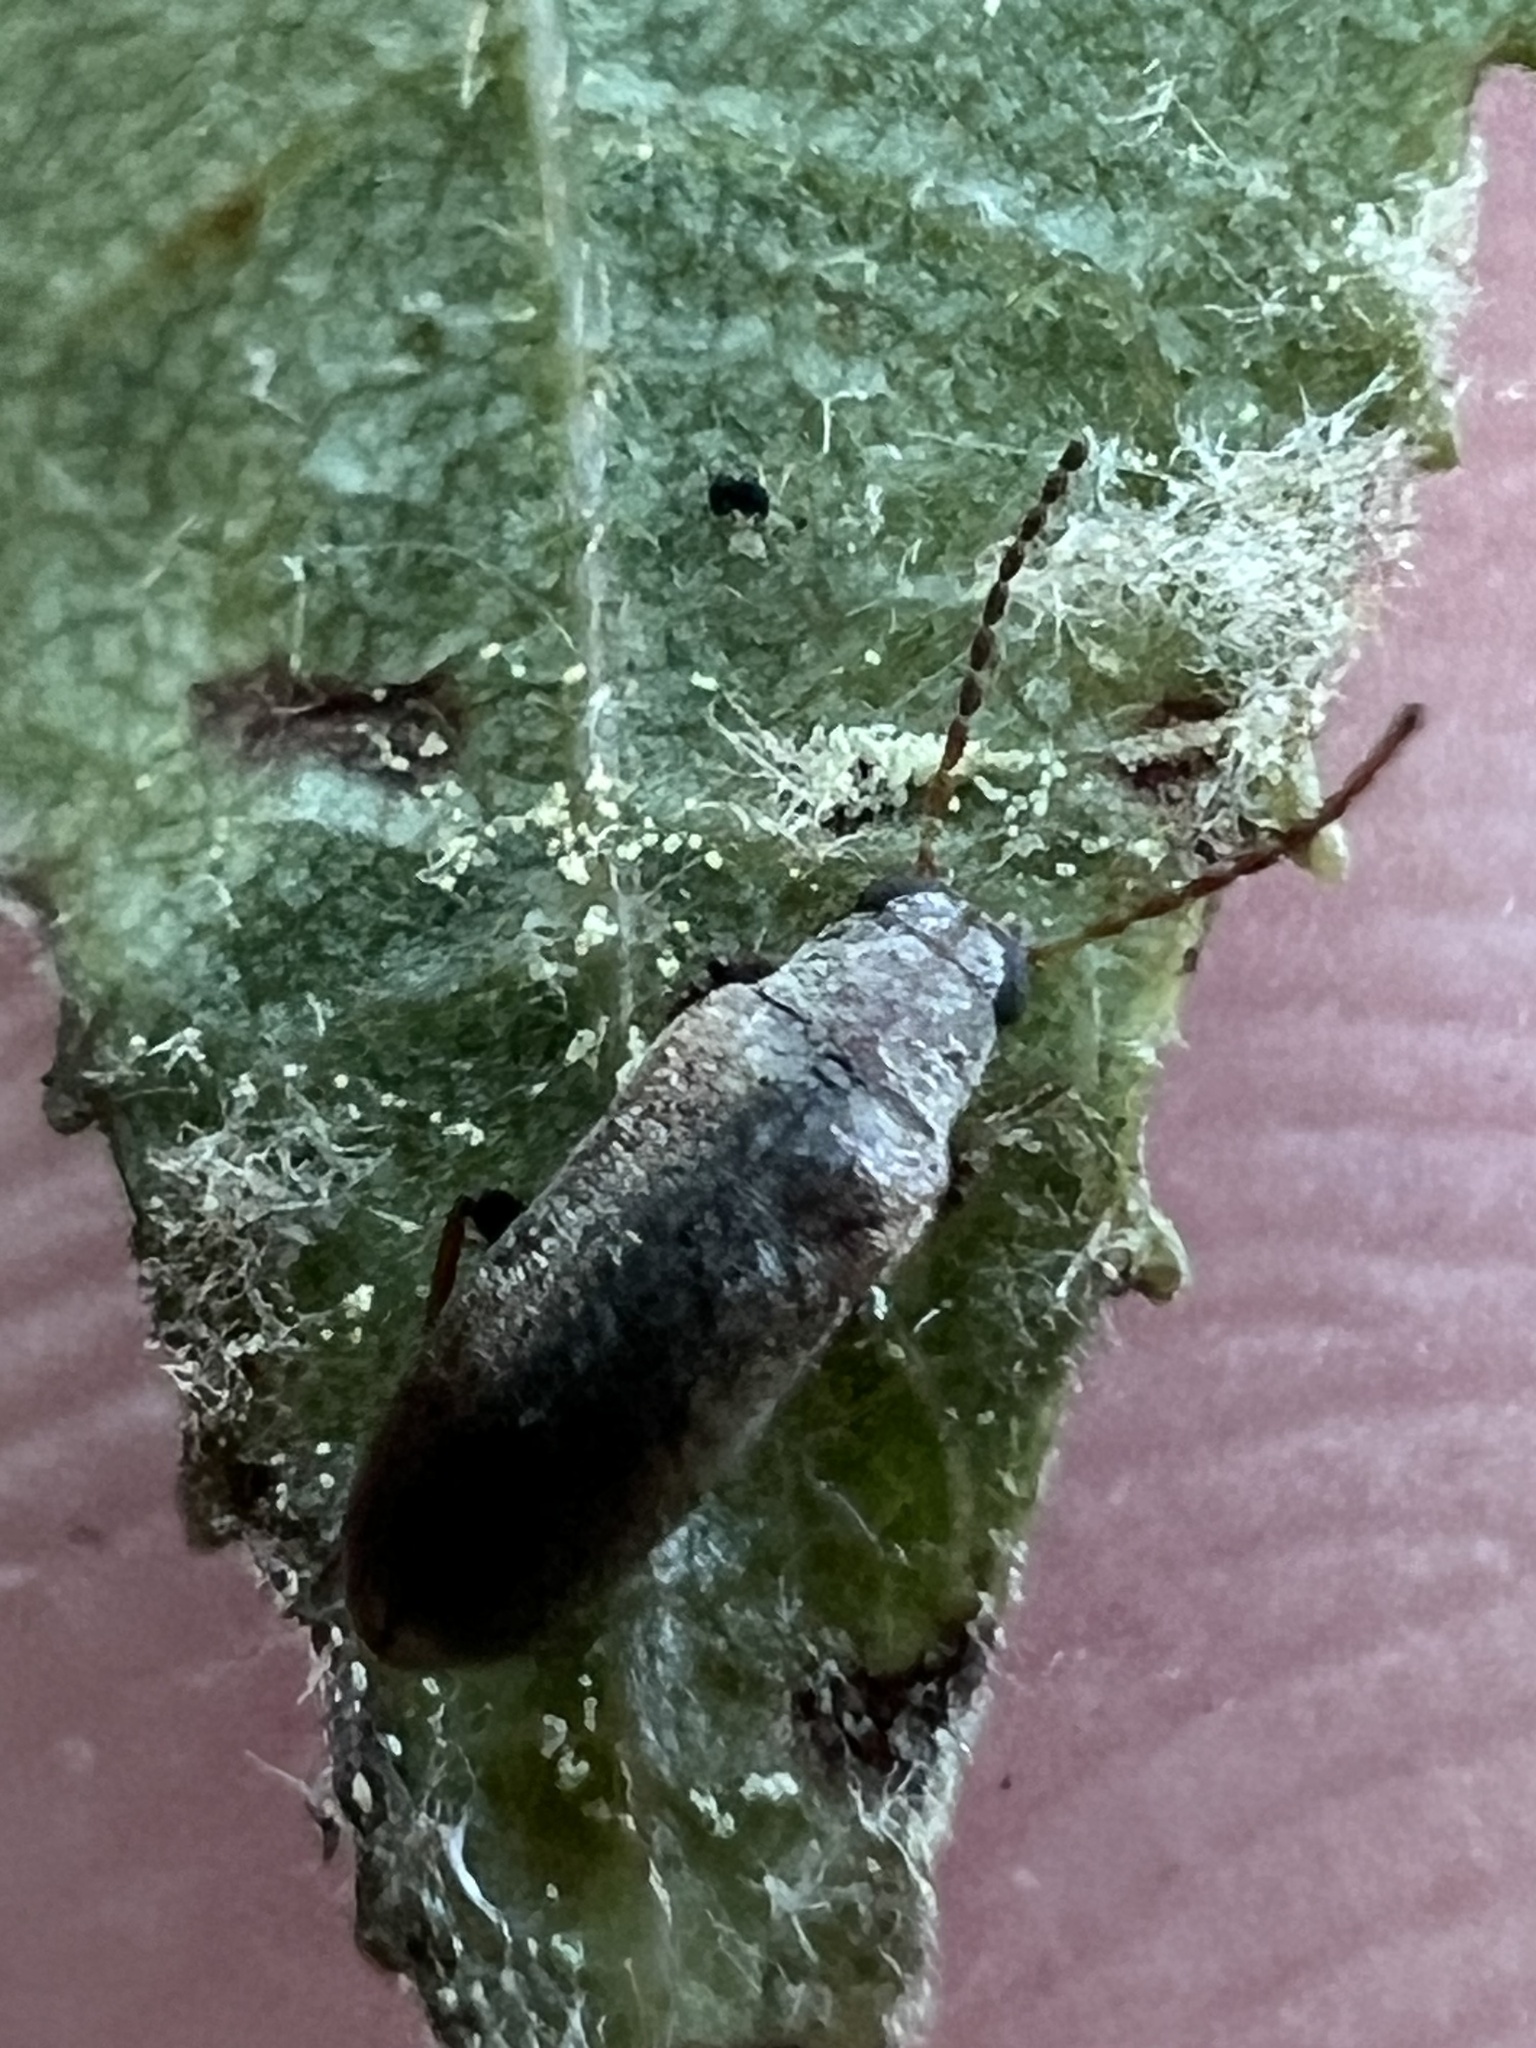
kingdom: Animalia
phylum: Arthropoda
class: Insecta
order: Coleoptera
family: Melandryidae
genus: Microtonus
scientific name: Microtonus sericans
